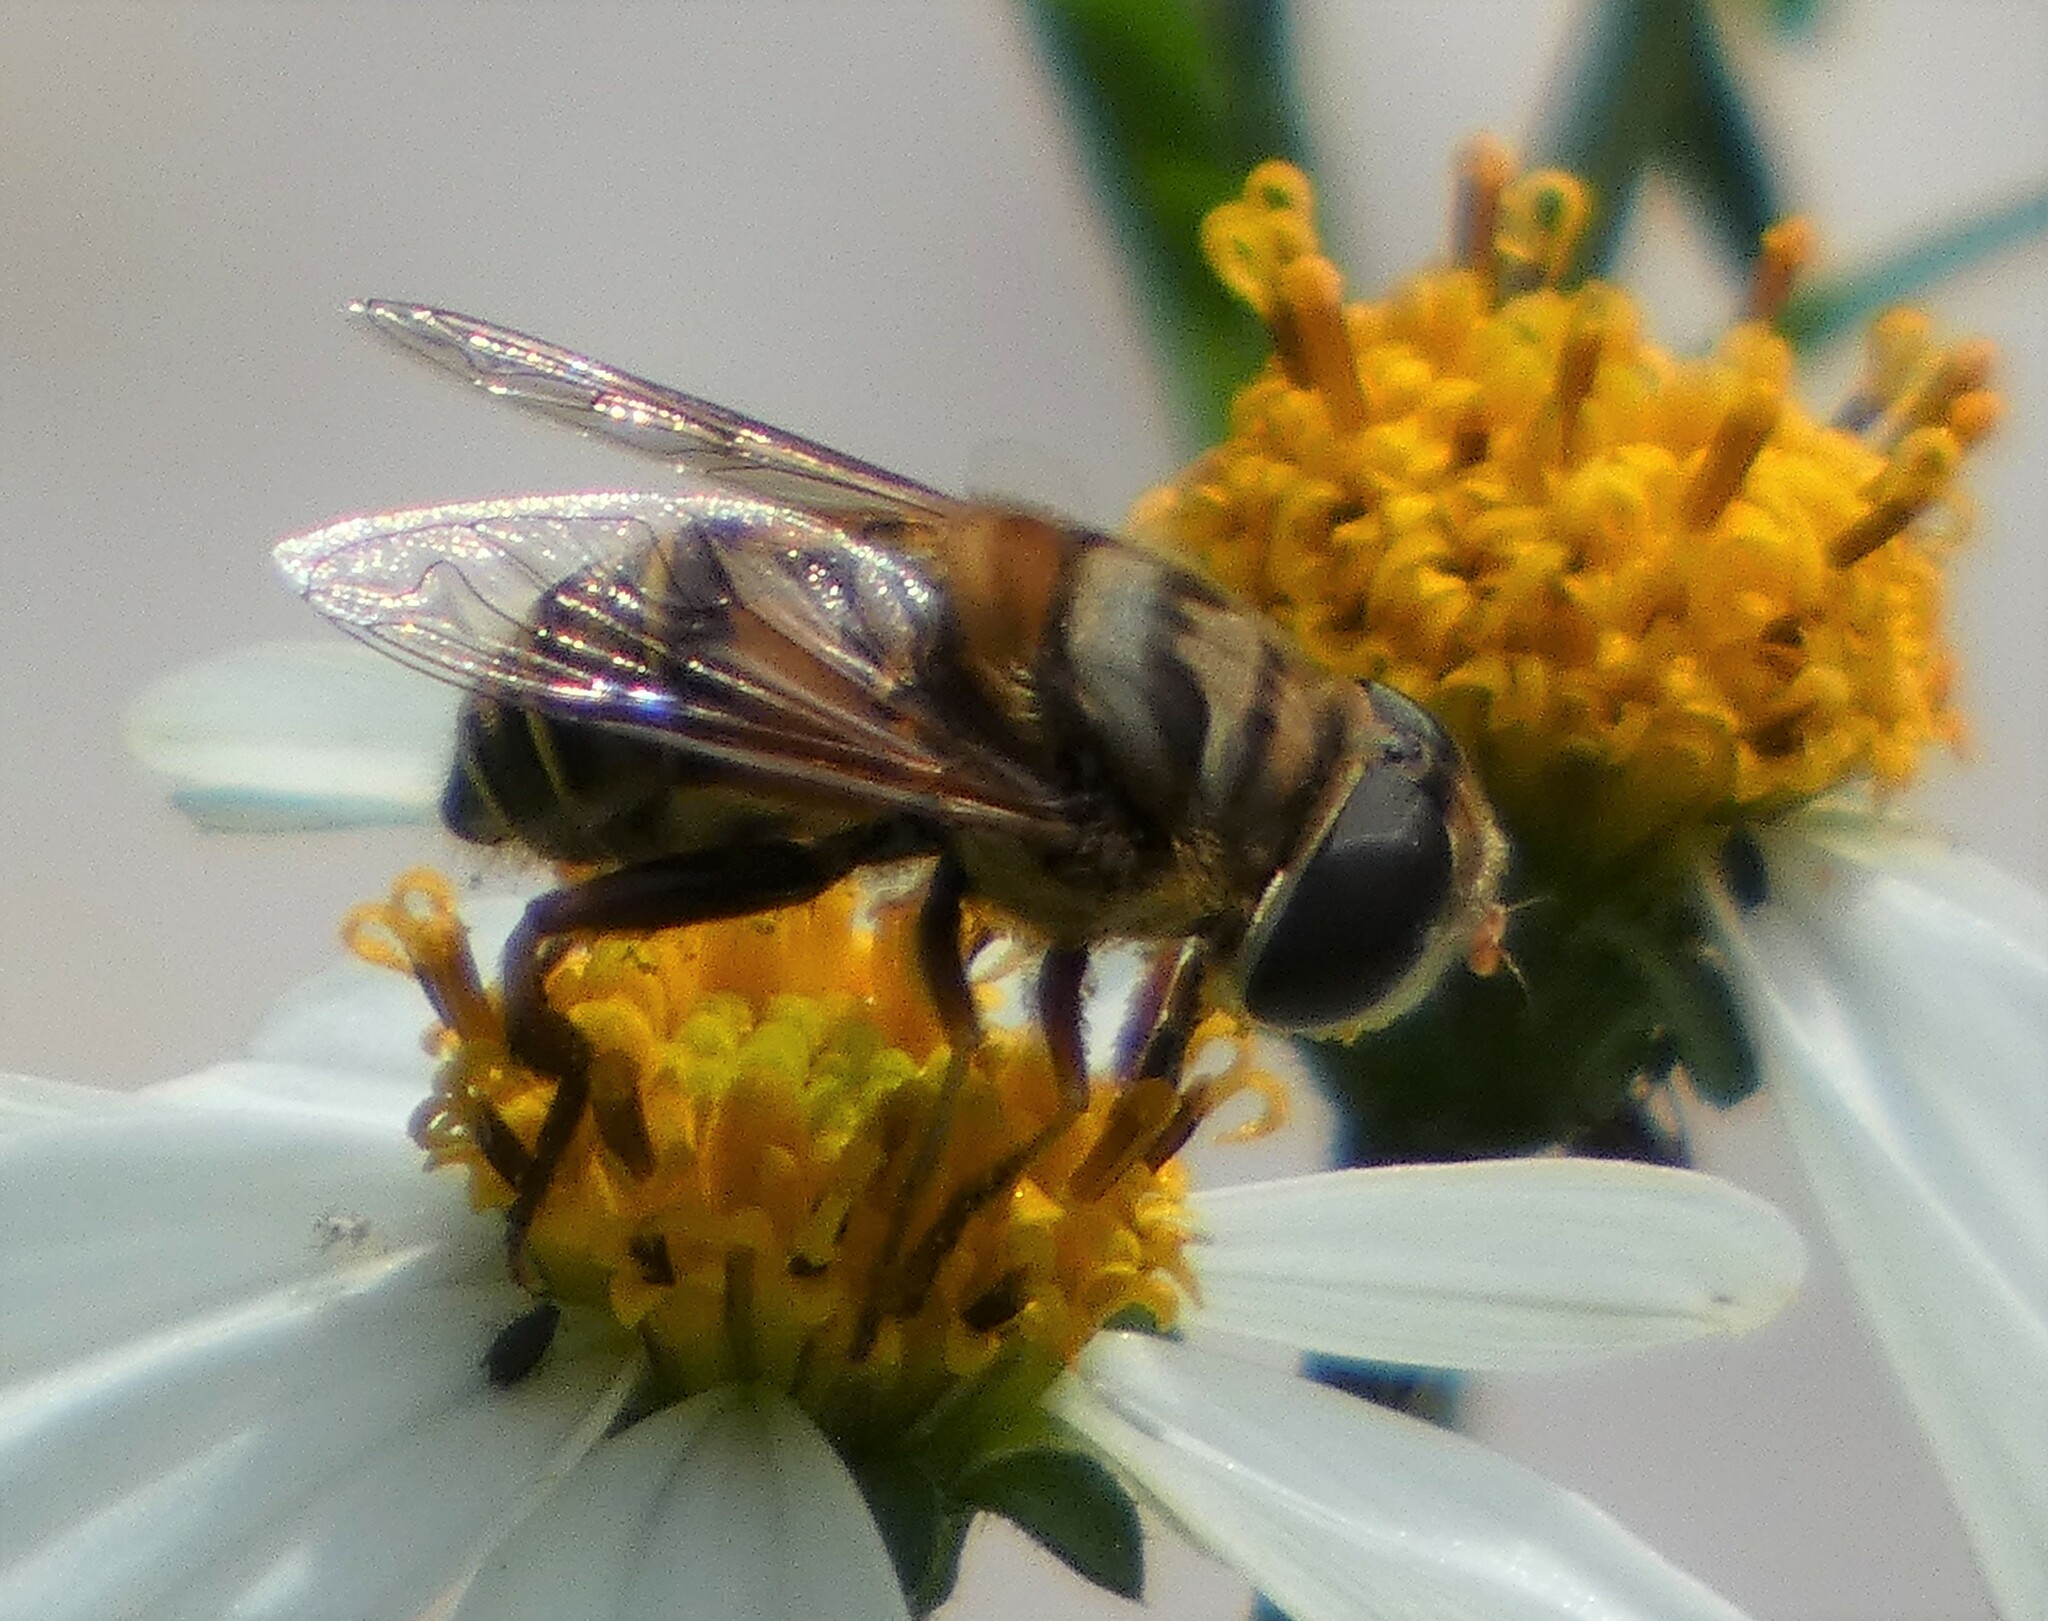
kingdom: Animalia
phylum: Arthropoda
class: Insecta
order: Diptera
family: Syrphidae
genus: Palpada
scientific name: Palpada vinetorum
